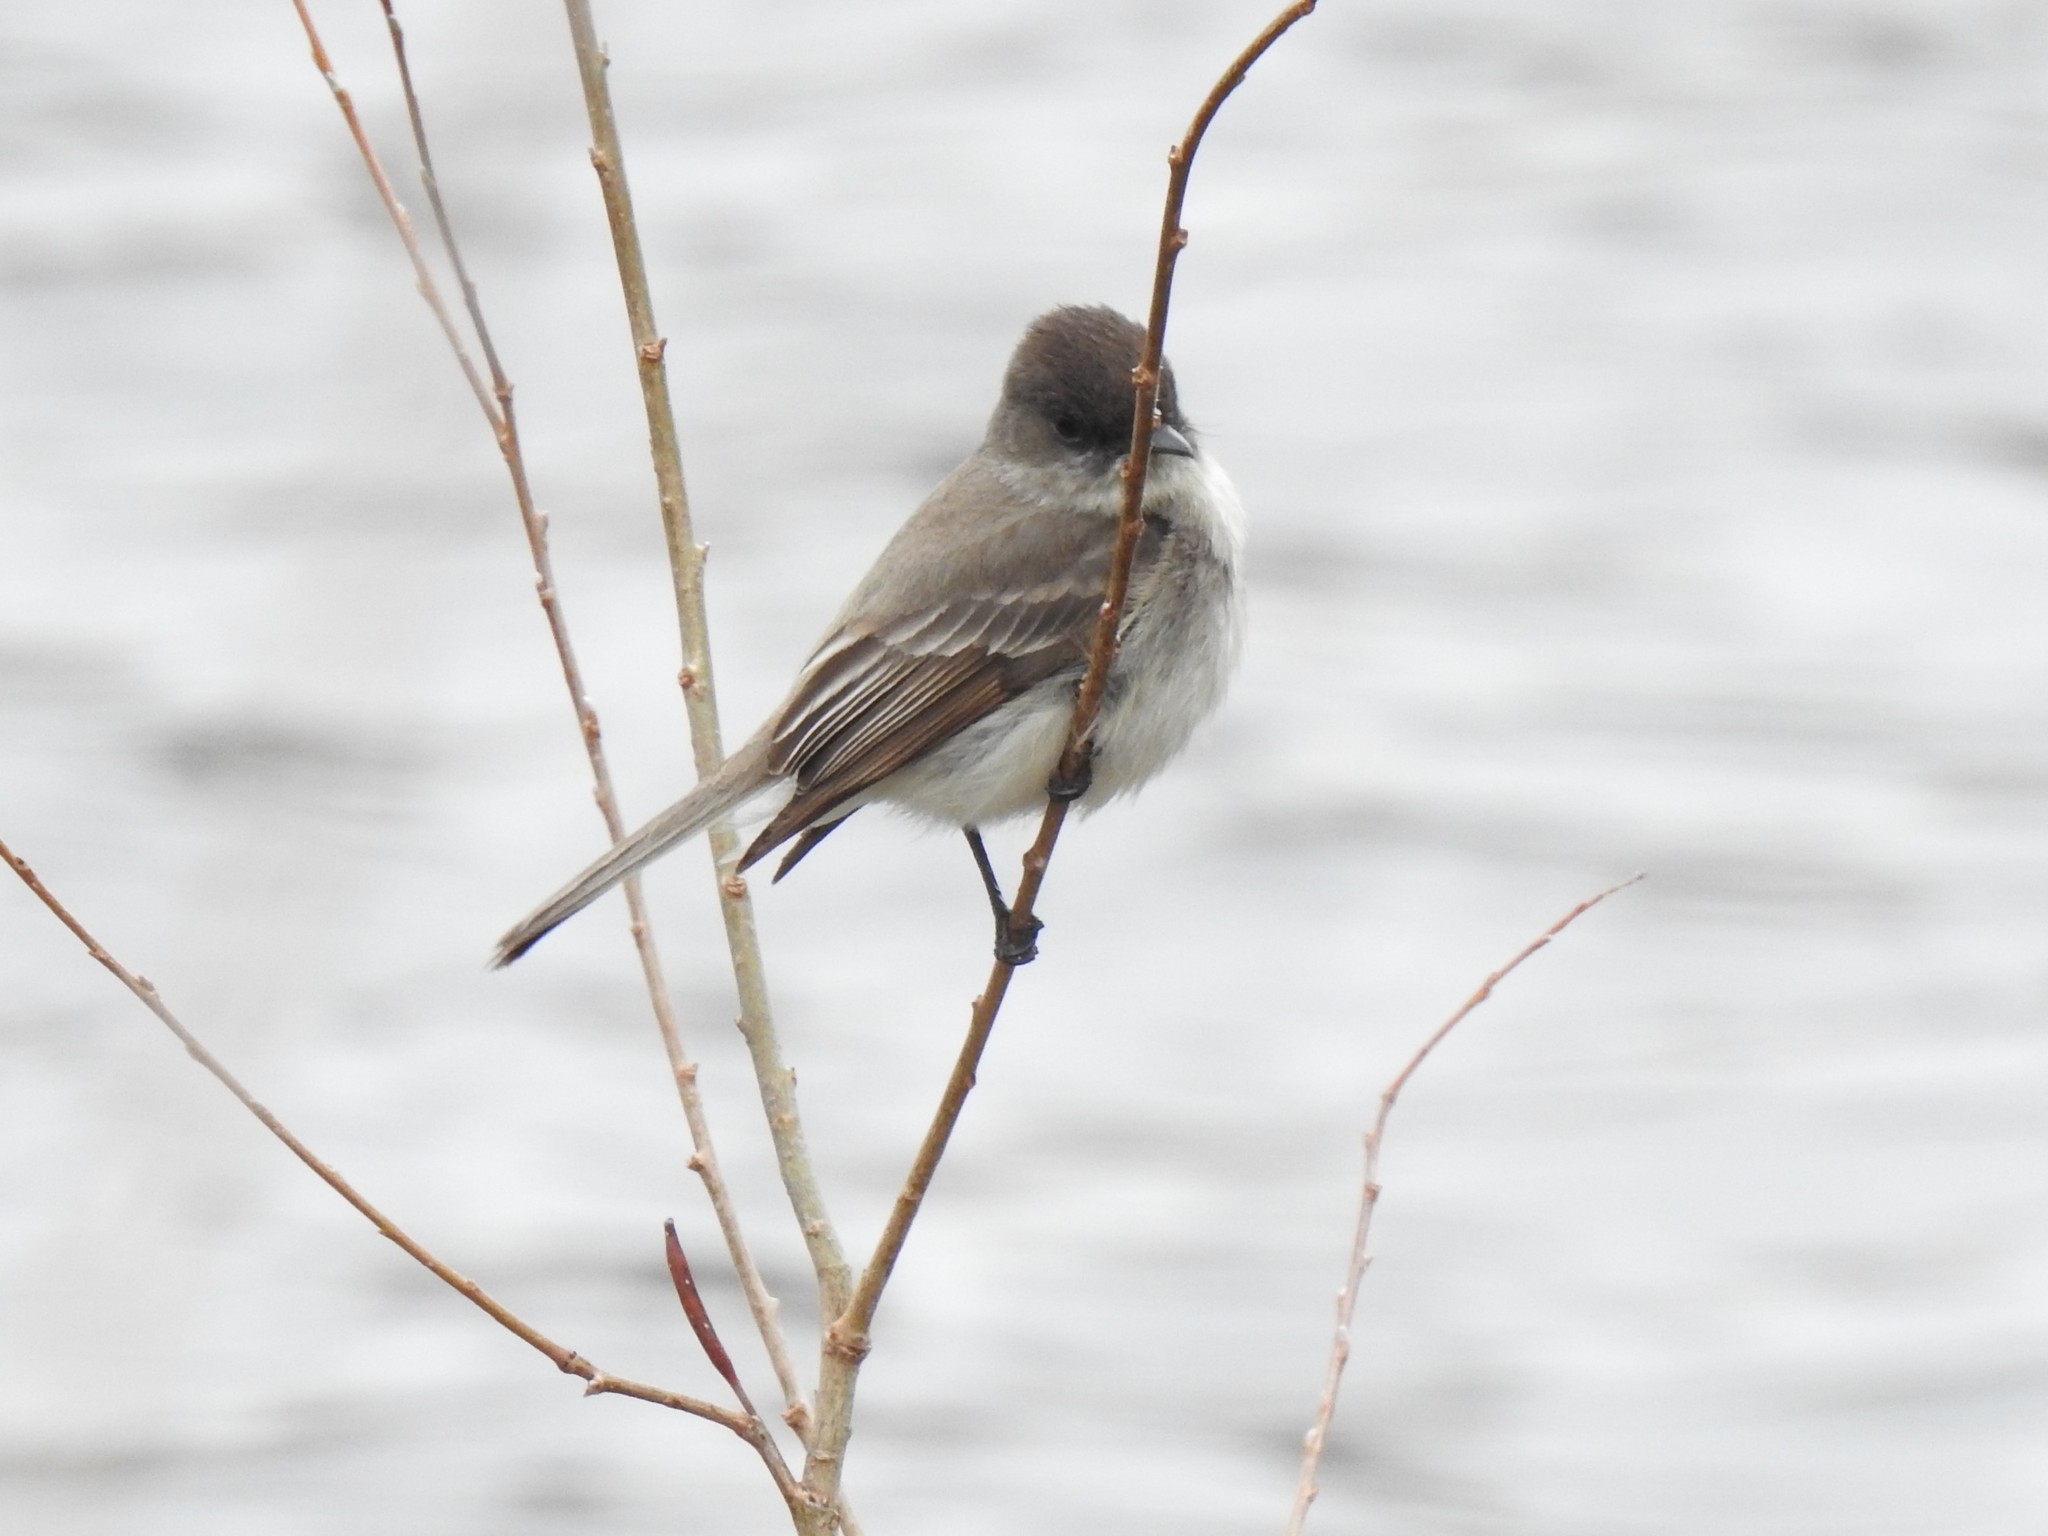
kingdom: Animalia
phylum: Chordata
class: Aves
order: Passeriformes
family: Tyrannidae
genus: Sayornis
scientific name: Sayornis phoebe
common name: Eastern phoebe
